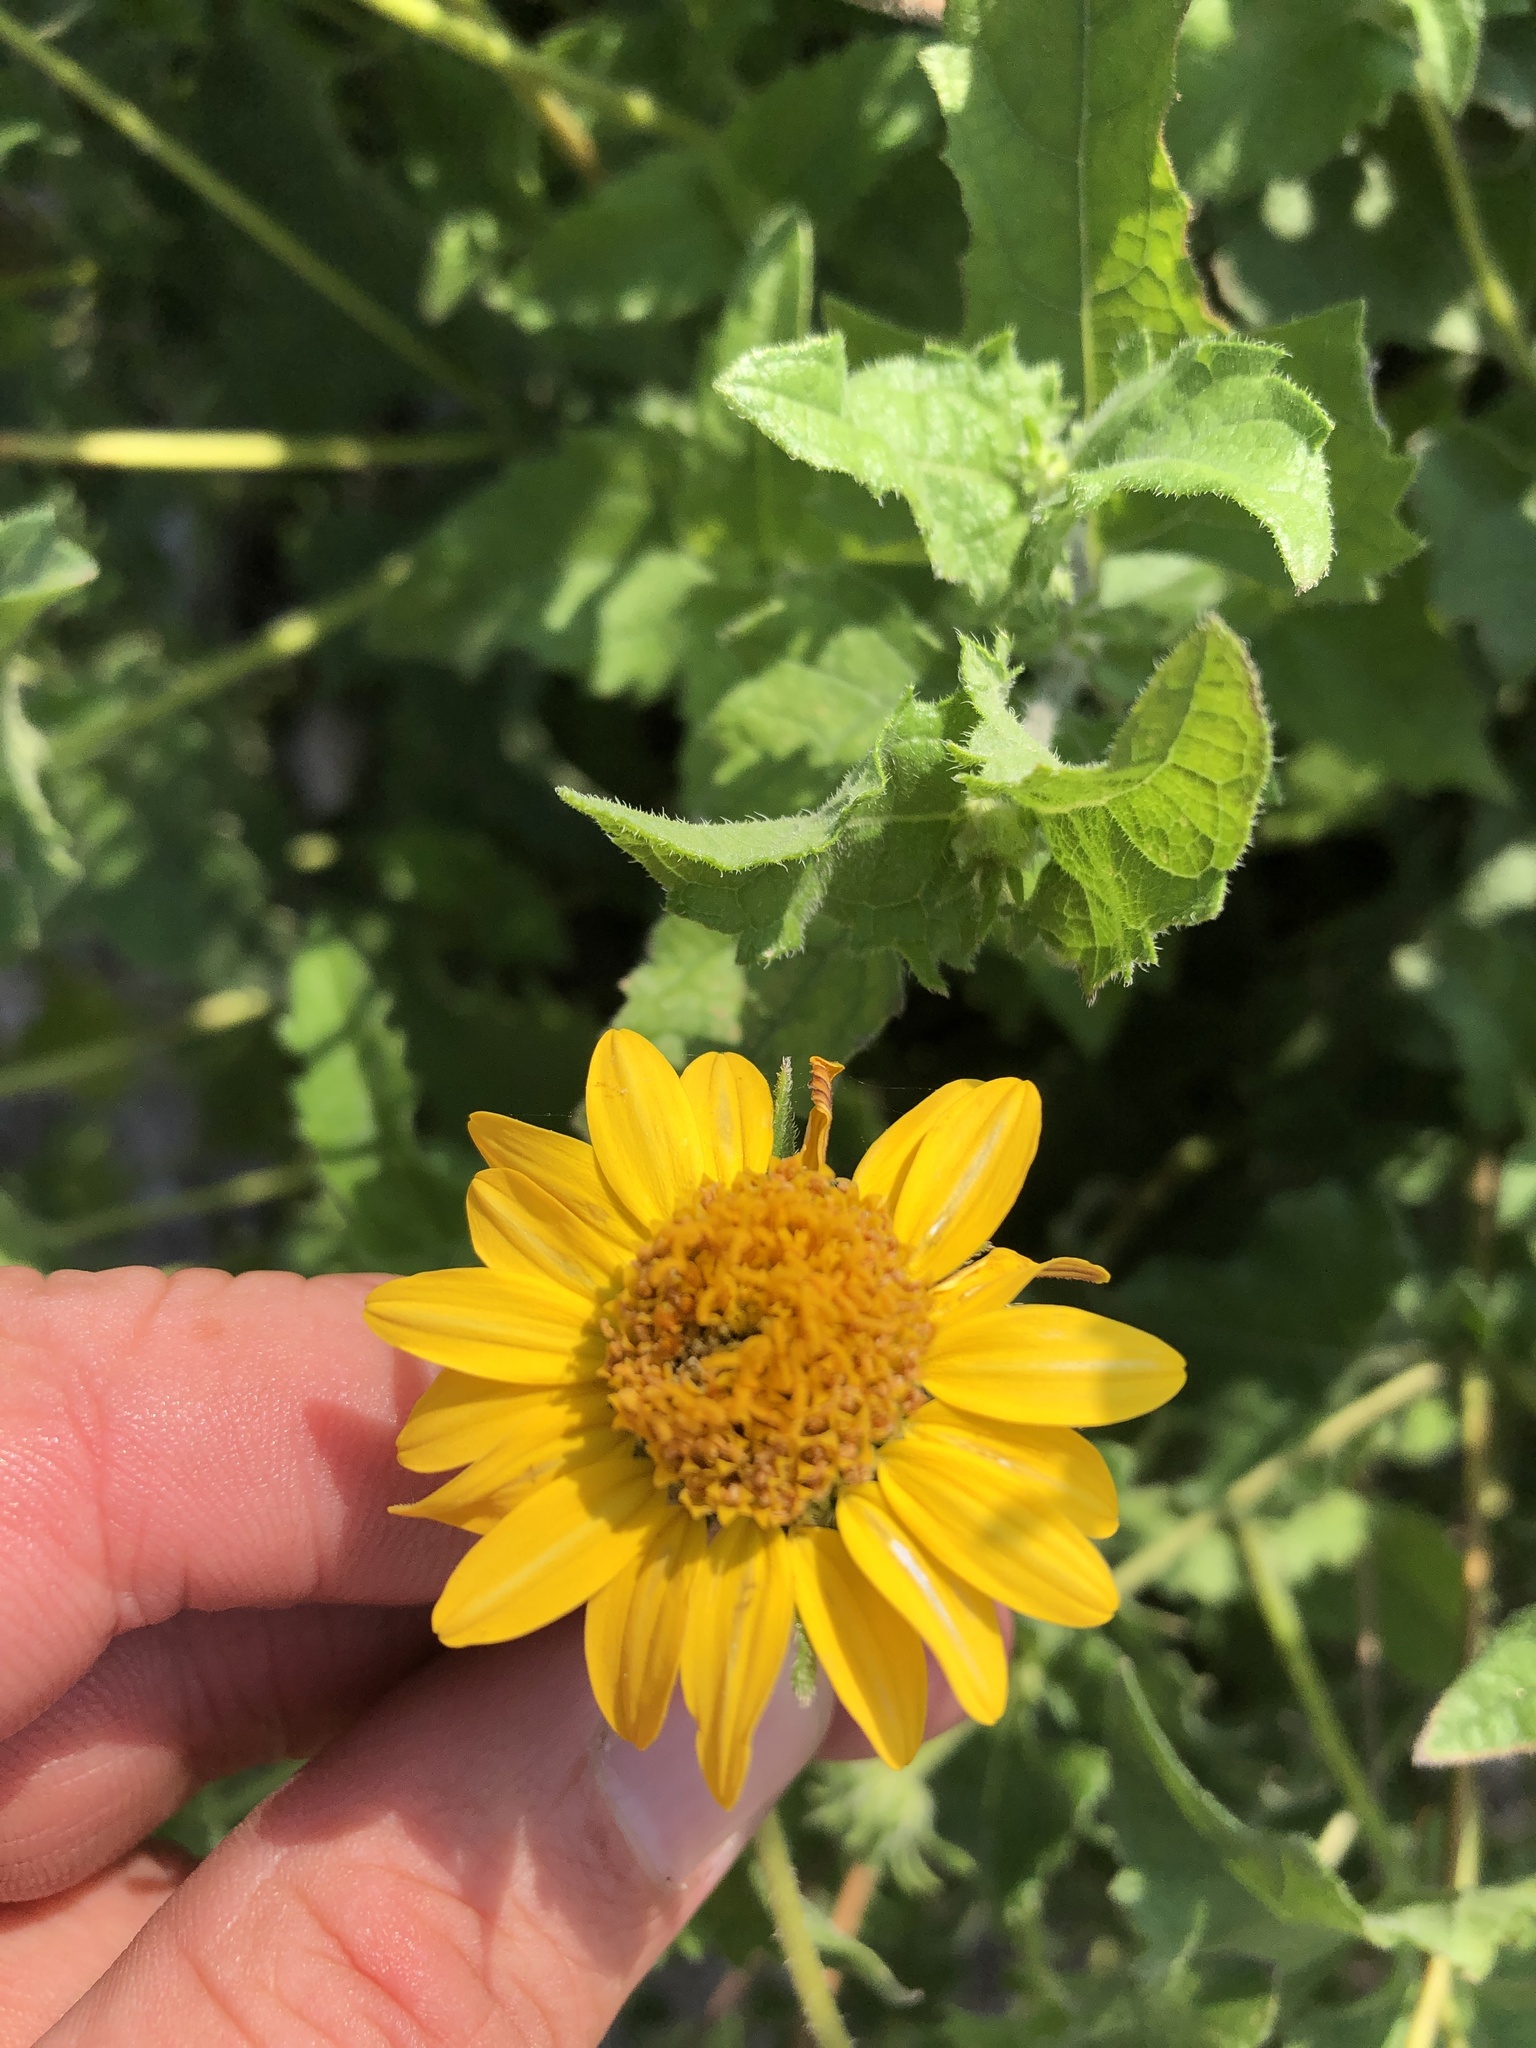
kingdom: Plantae
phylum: Tracheophyta
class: Magnoliopsida
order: Asterales
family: Asteraceae
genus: Simsia
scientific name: Simsia calva
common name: Awnless bush-sunflower
